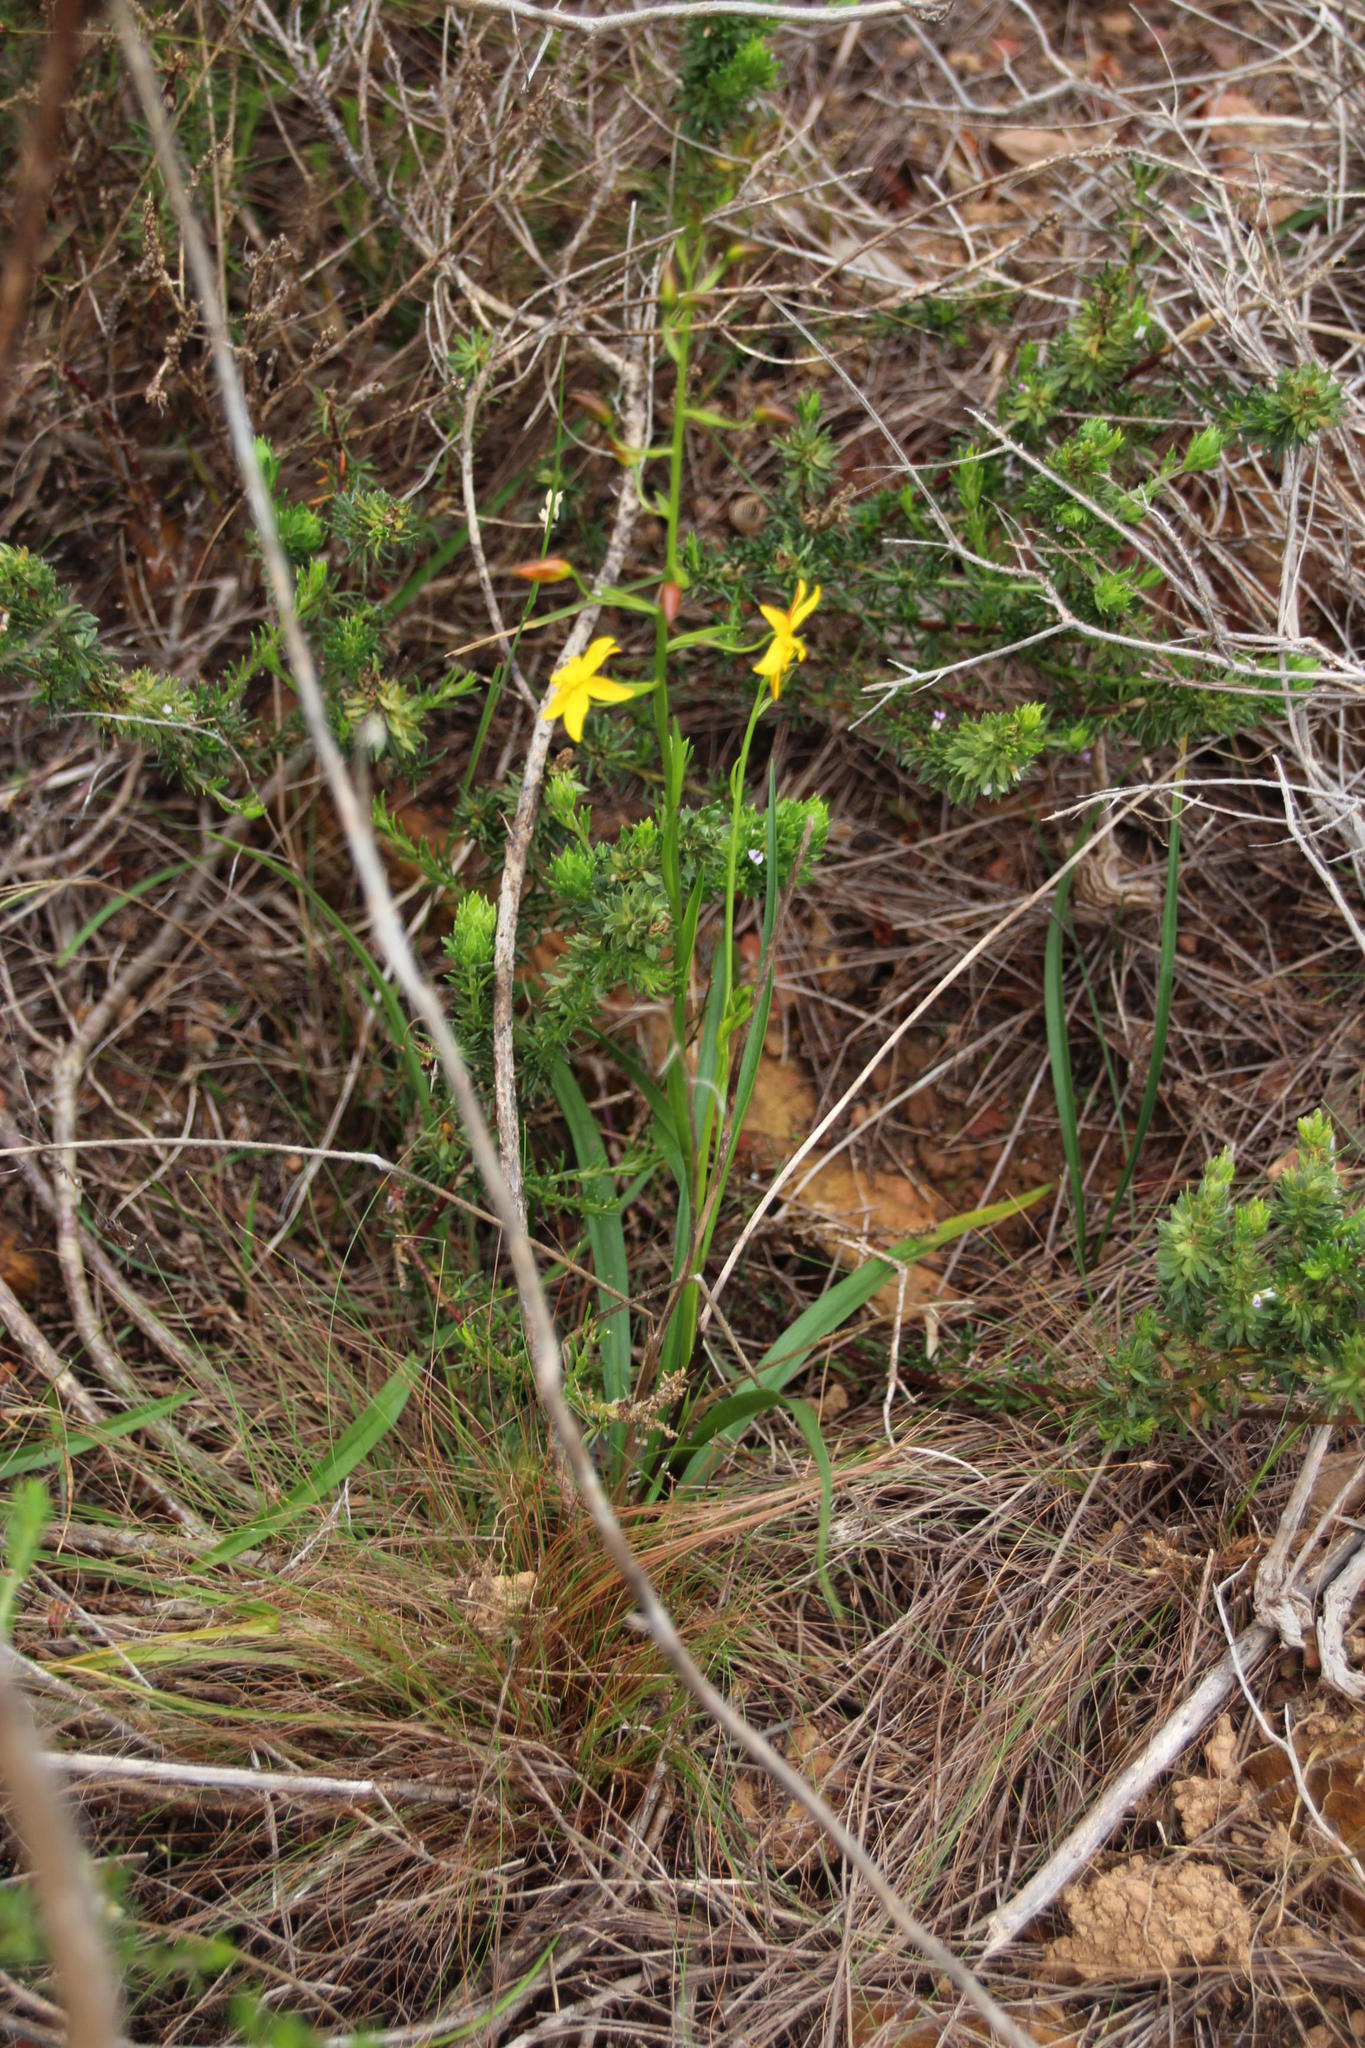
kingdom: Plantae
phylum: Tracheophyta
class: Liliopsida
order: Asparagales
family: Tecophilaeaceae
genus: Cyanella
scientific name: Cyanella lutea
